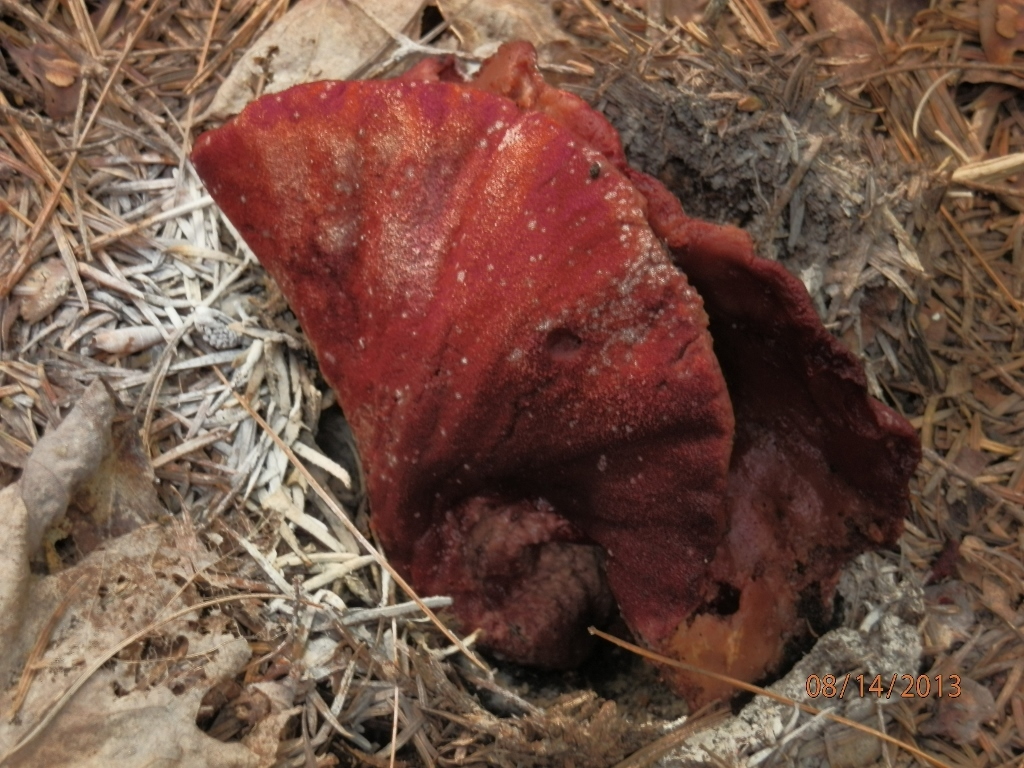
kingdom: Fungi
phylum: Ascomycota
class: Sordariomycetes
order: Hypocreales
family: Hypocreaceae
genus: Hypomyces
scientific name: Hypomyces lactifluorum
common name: Lobster mushroom
